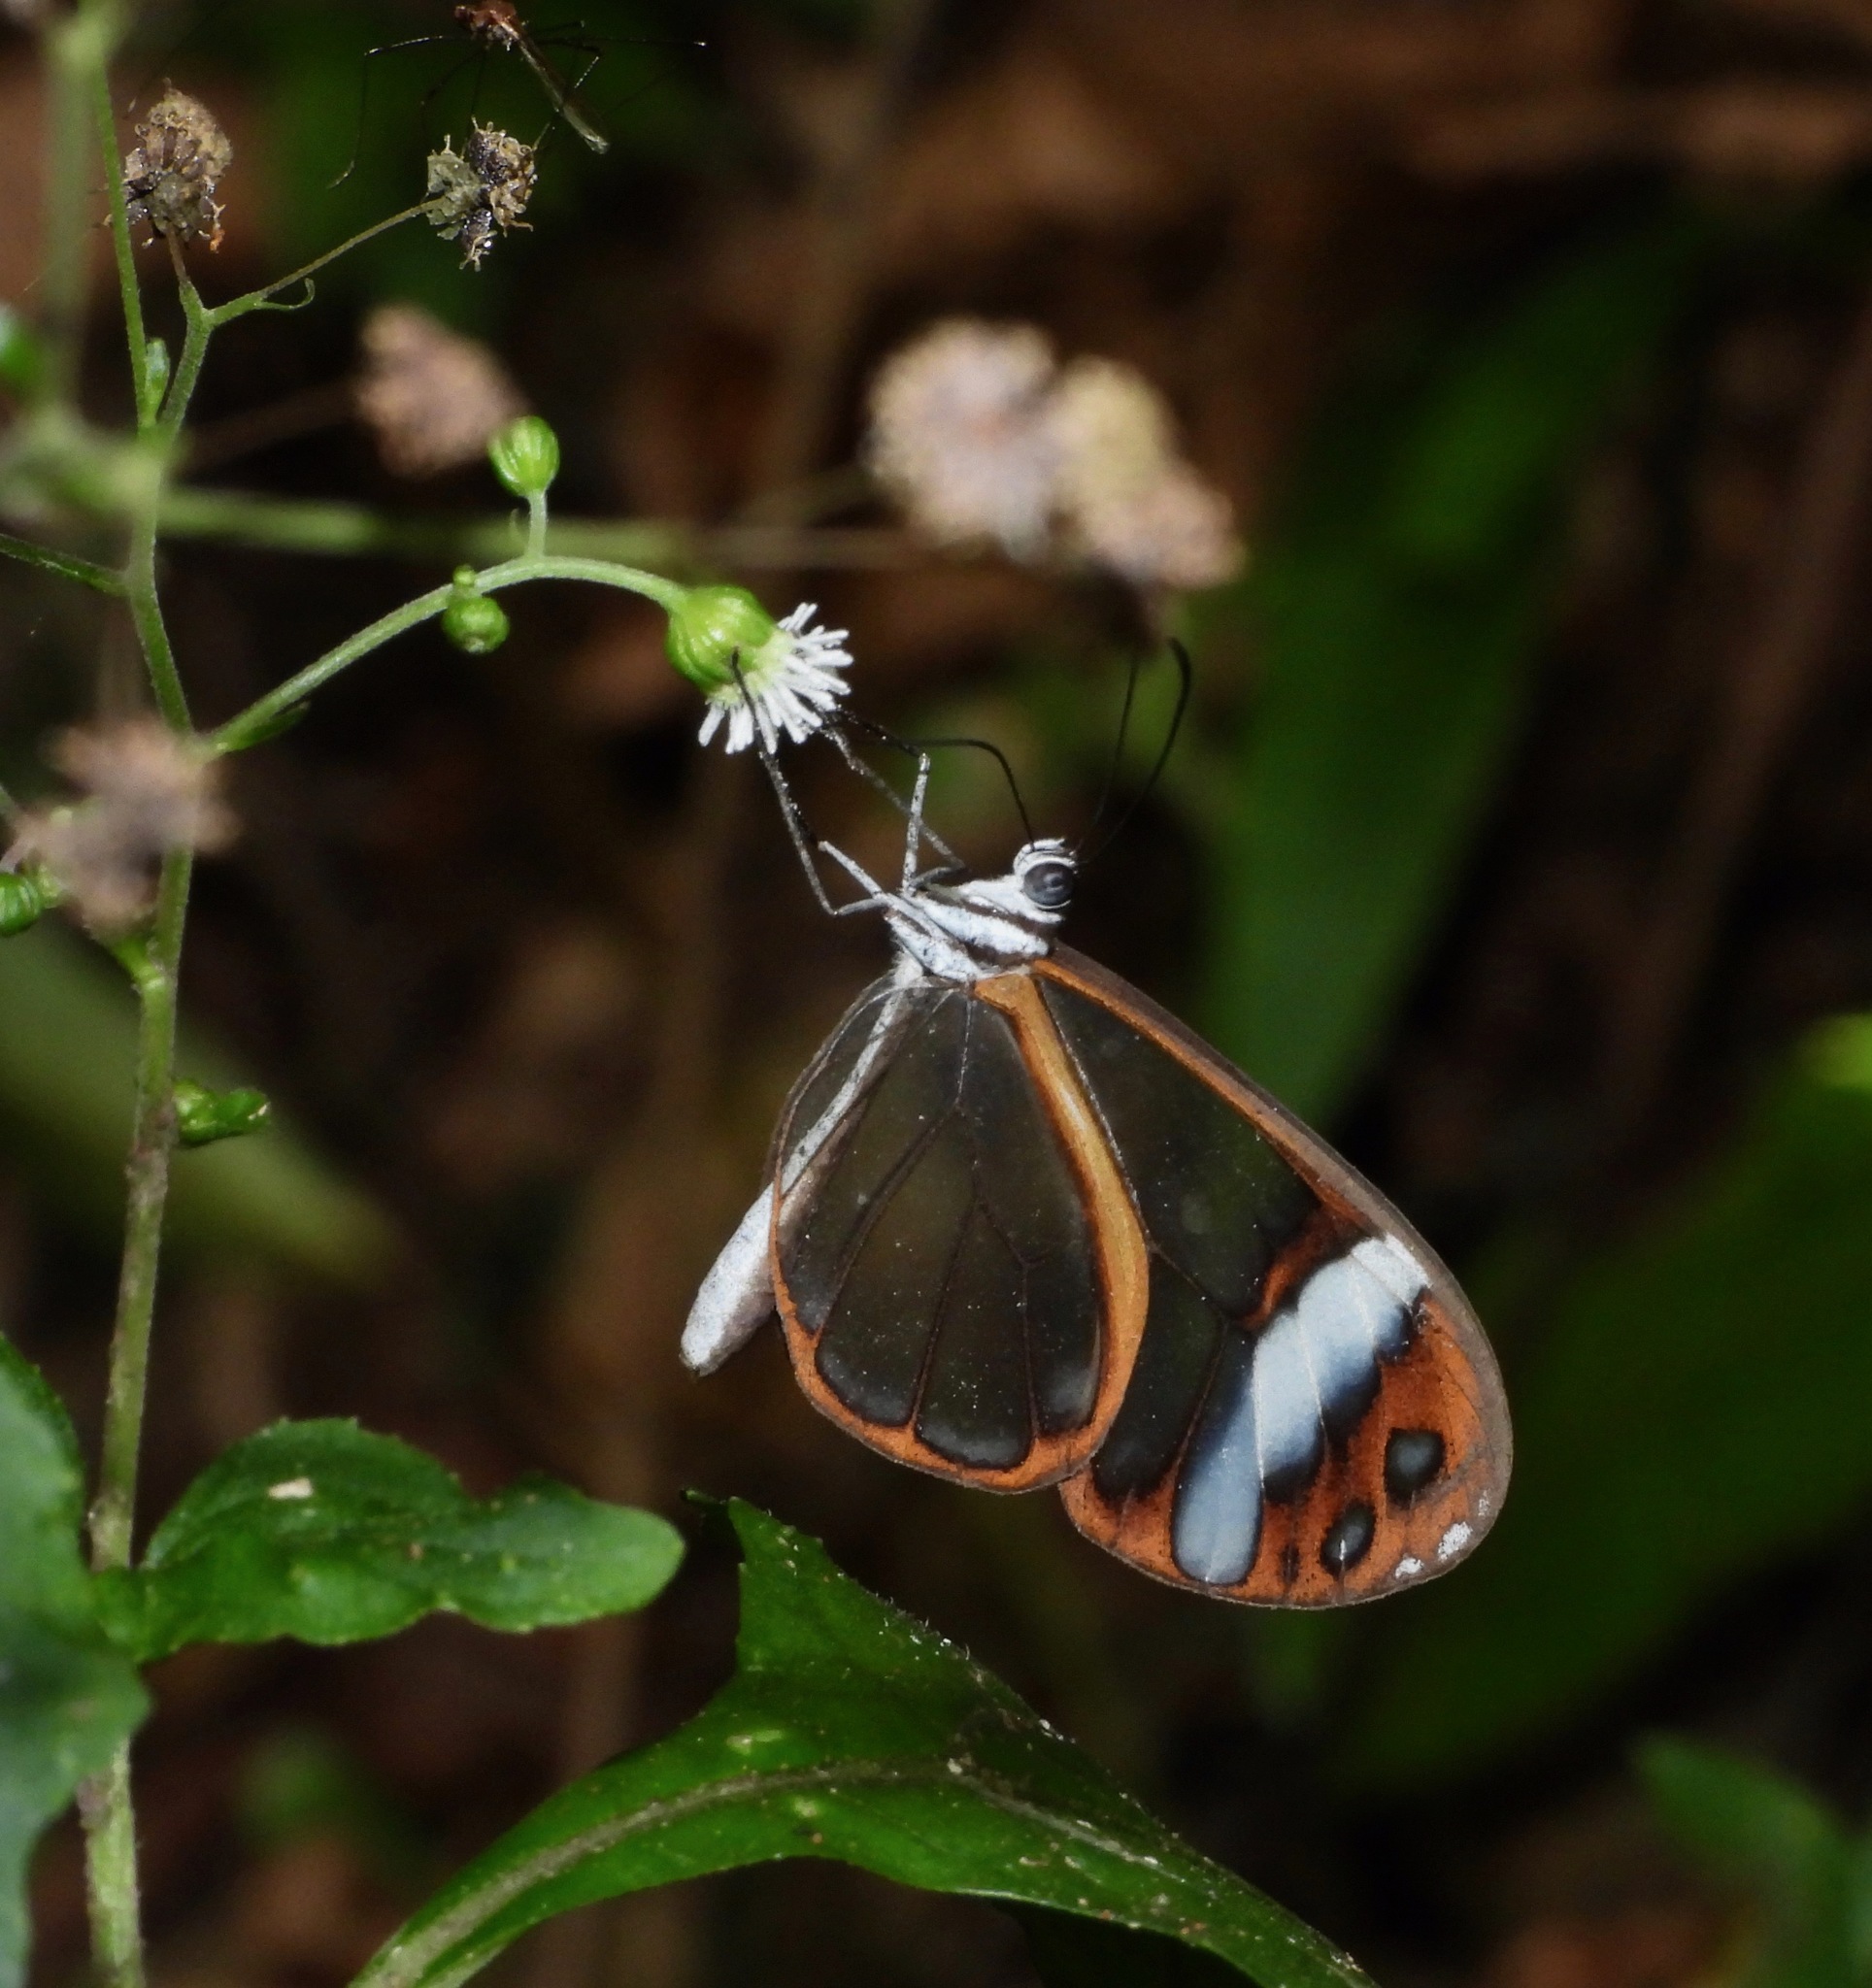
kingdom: Animalia
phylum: Arthropoda
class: Insecta
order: Lepidoptera
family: Nymphalidae
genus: Greta
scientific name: Greta andromica
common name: Andromica clearwing
